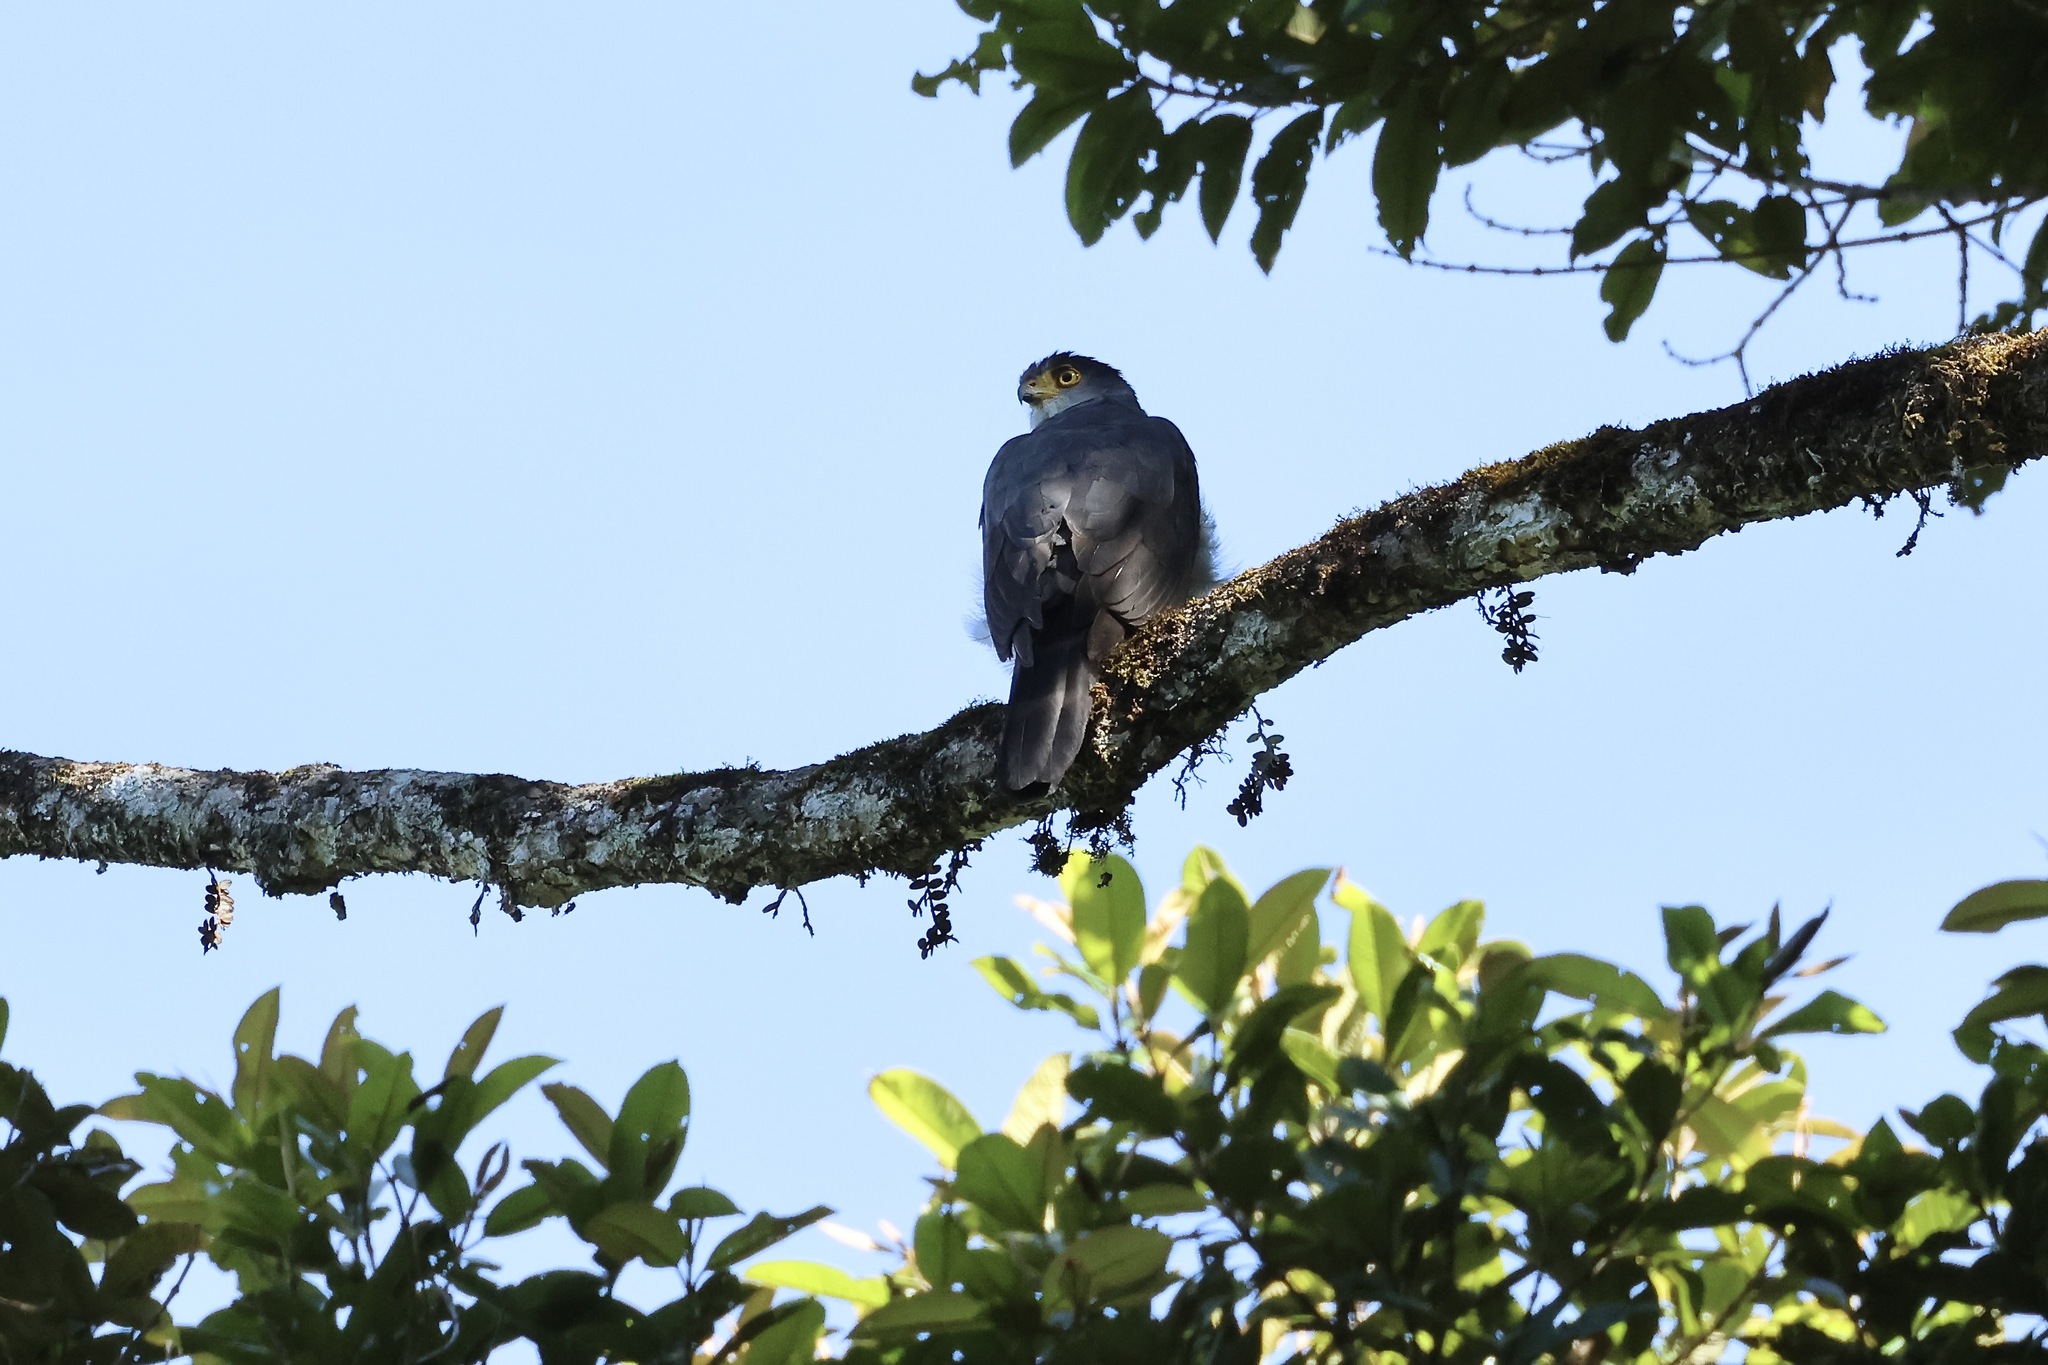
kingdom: Animalia
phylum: Chordata
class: Aves
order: Accipitriformes
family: Accipitridae
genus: Accipiter
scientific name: Accipiter bicolor
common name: Bicolored hawk
